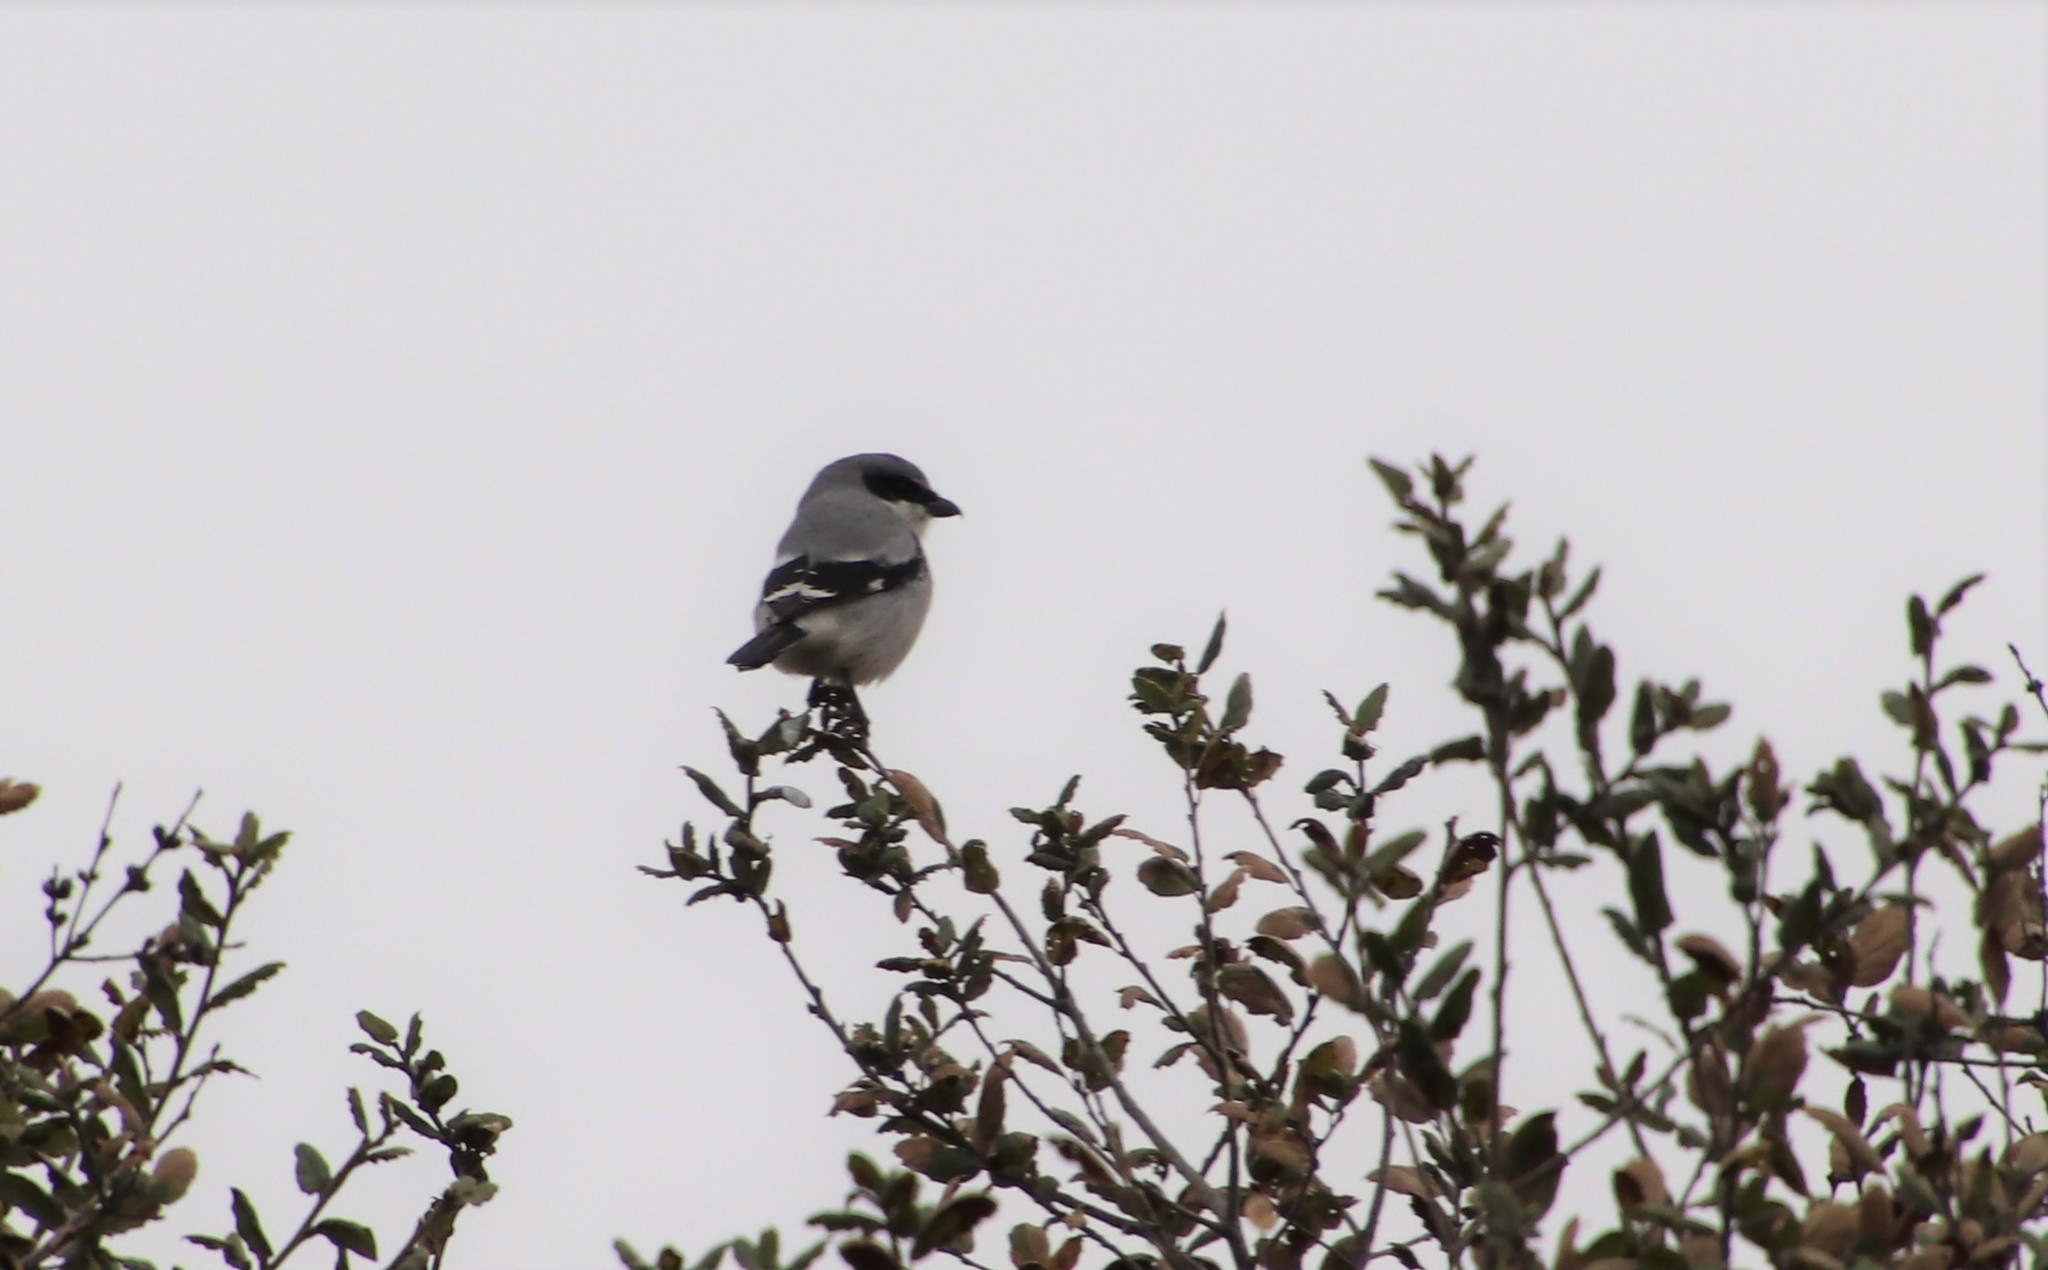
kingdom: Animalia
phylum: Chordata
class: Aves
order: Passeriformes
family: Laniidae
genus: Lanius
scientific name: Lanius ludovicianus
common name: Loggerhead shrike
